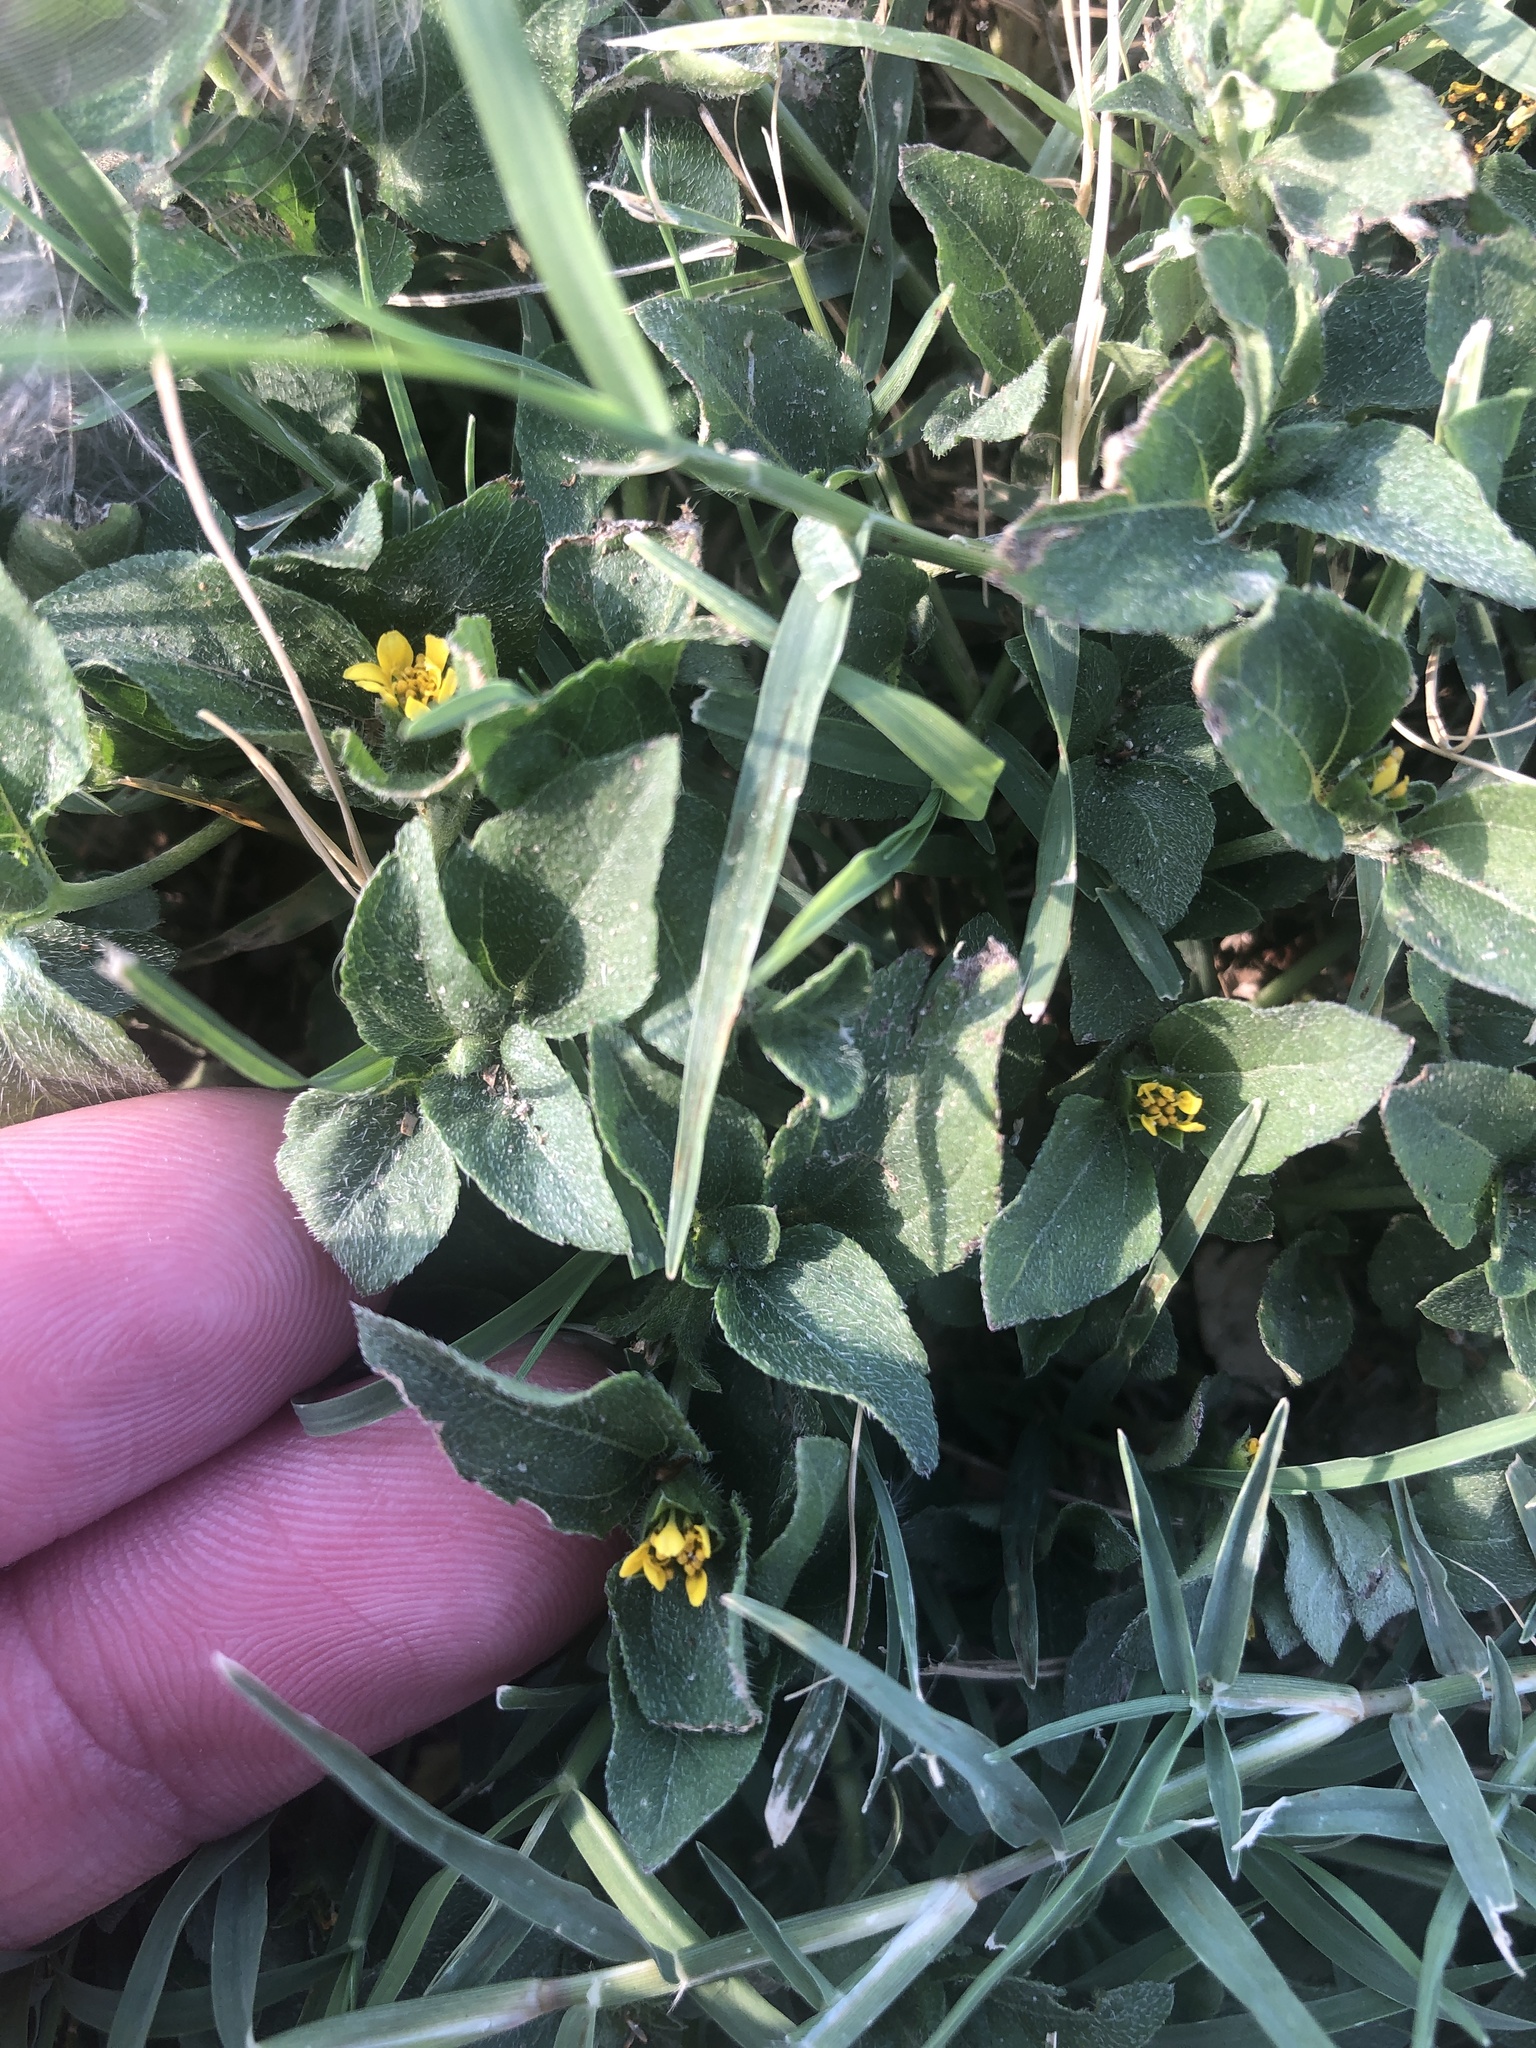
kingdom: Plantae
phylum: Tracheophyta
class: Magnoliopsida
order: Asterales
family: Asteraceae
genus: Calyptocarpus
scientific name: Calyptocarpus vialis
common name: Straggler daisy
